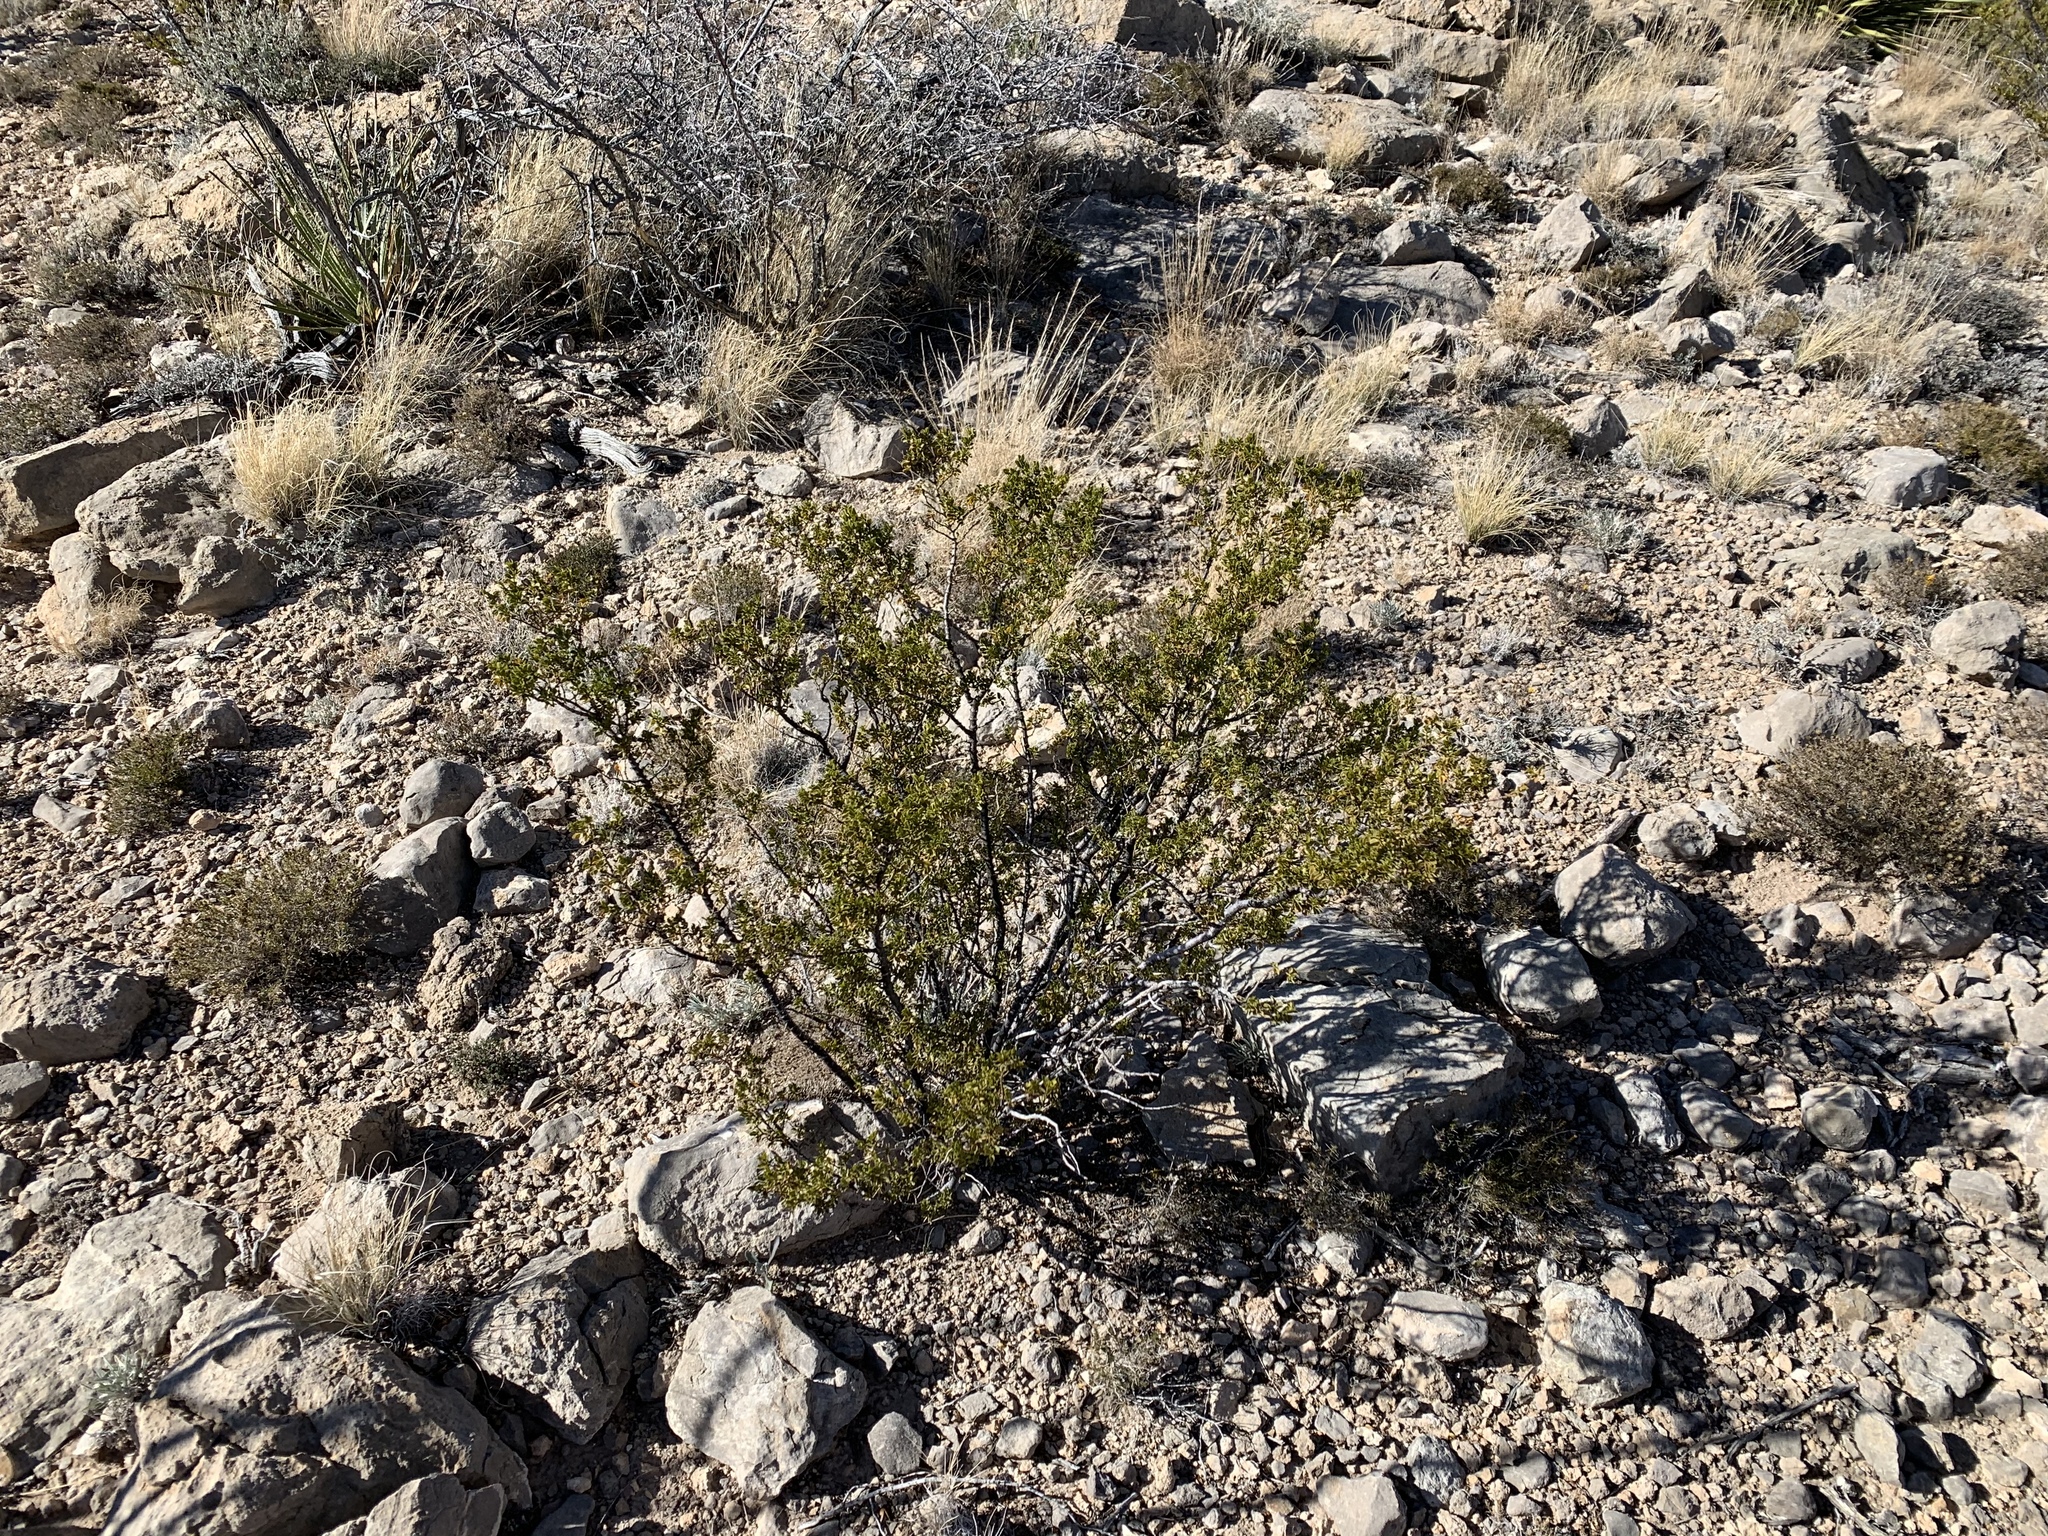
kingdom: Plantae
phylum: Tracheophyta
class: Magnoliopsida
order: Zygophyllales
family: Zygophyllaceae
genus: Larrea
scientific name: Larrea tridentata
